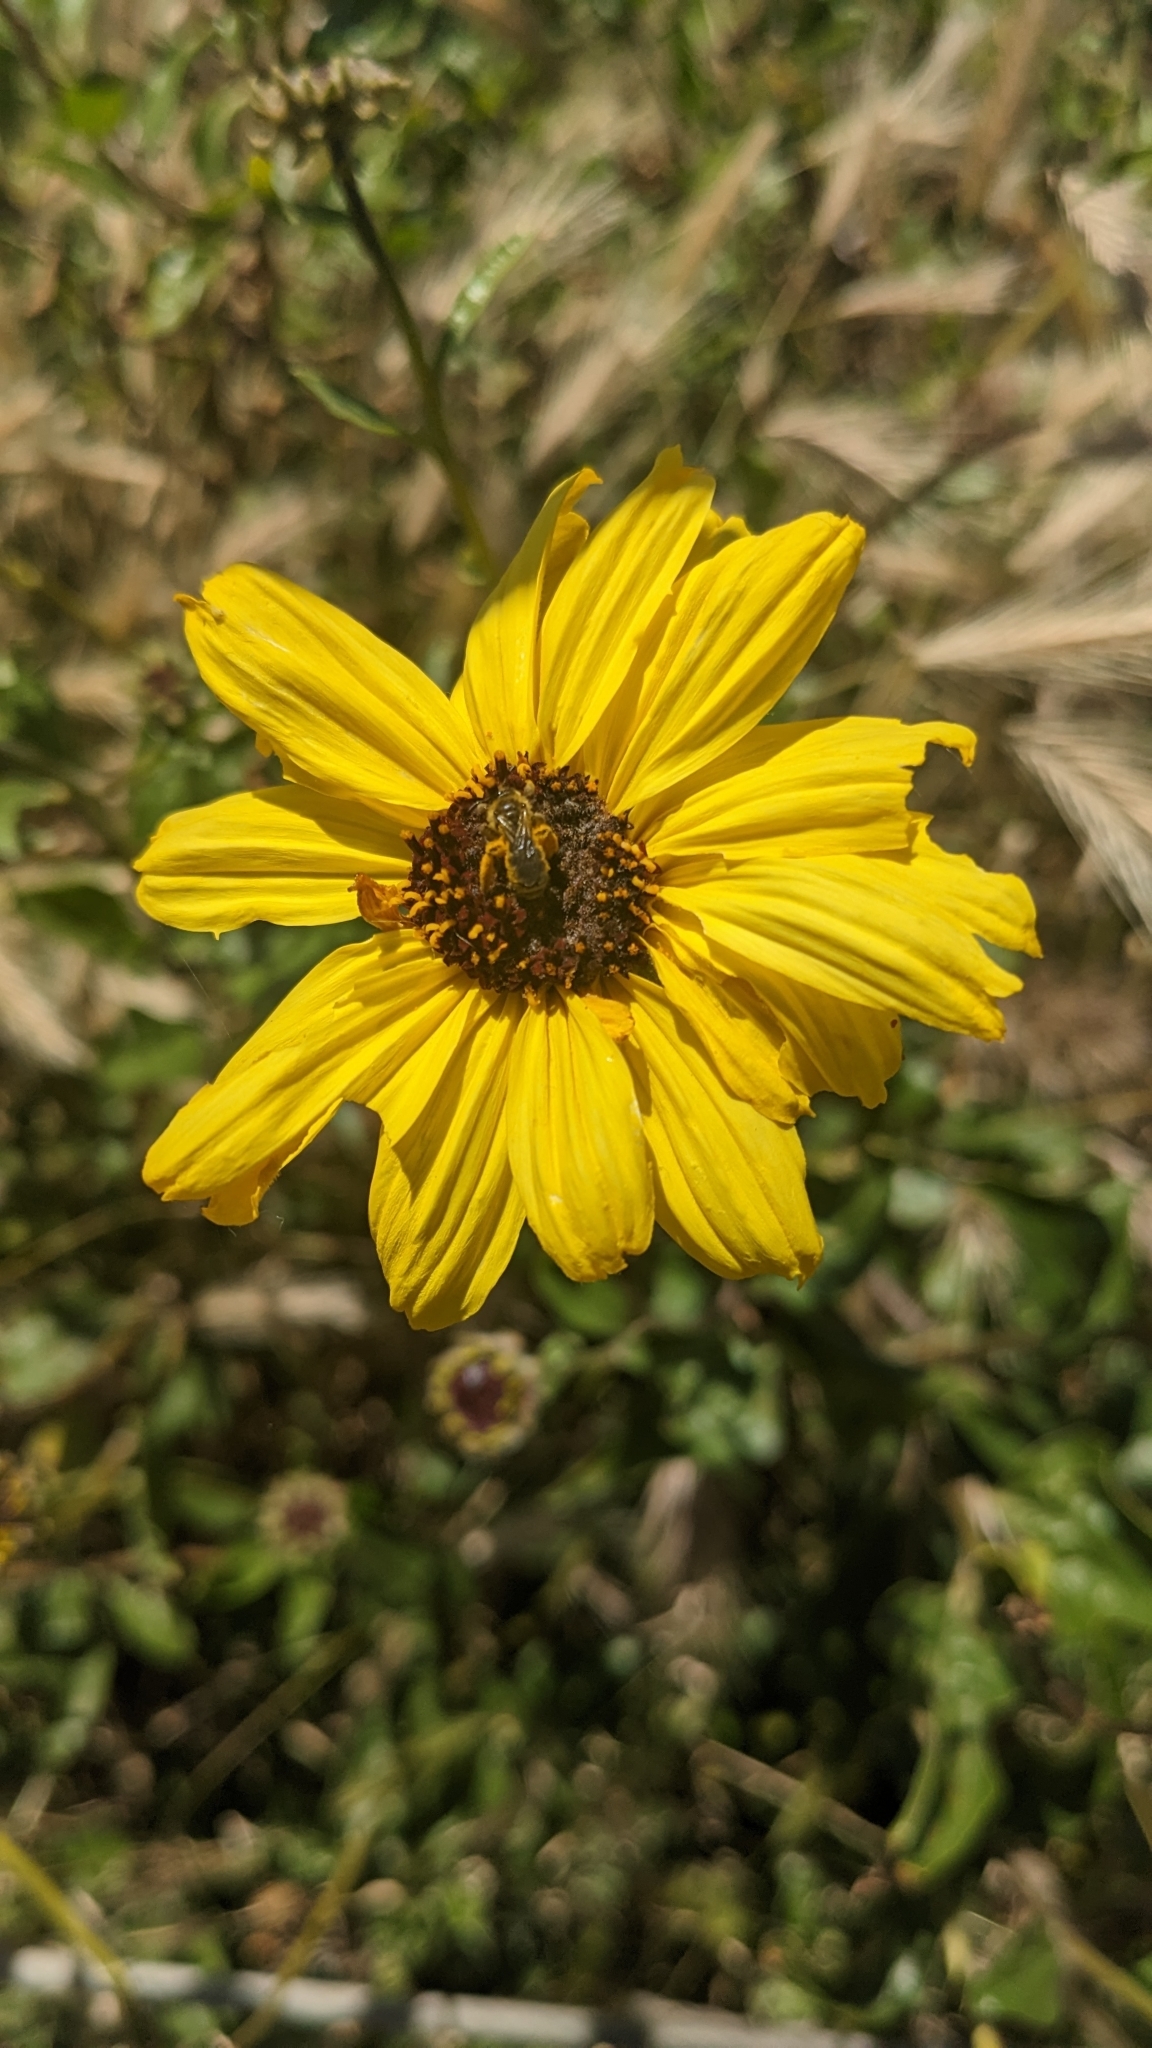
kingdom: Plantae
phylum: Tracheophyta
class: Magnoliopsida
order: Asterales
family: Asteraceae
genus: Encelia
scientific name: Encelia californica
